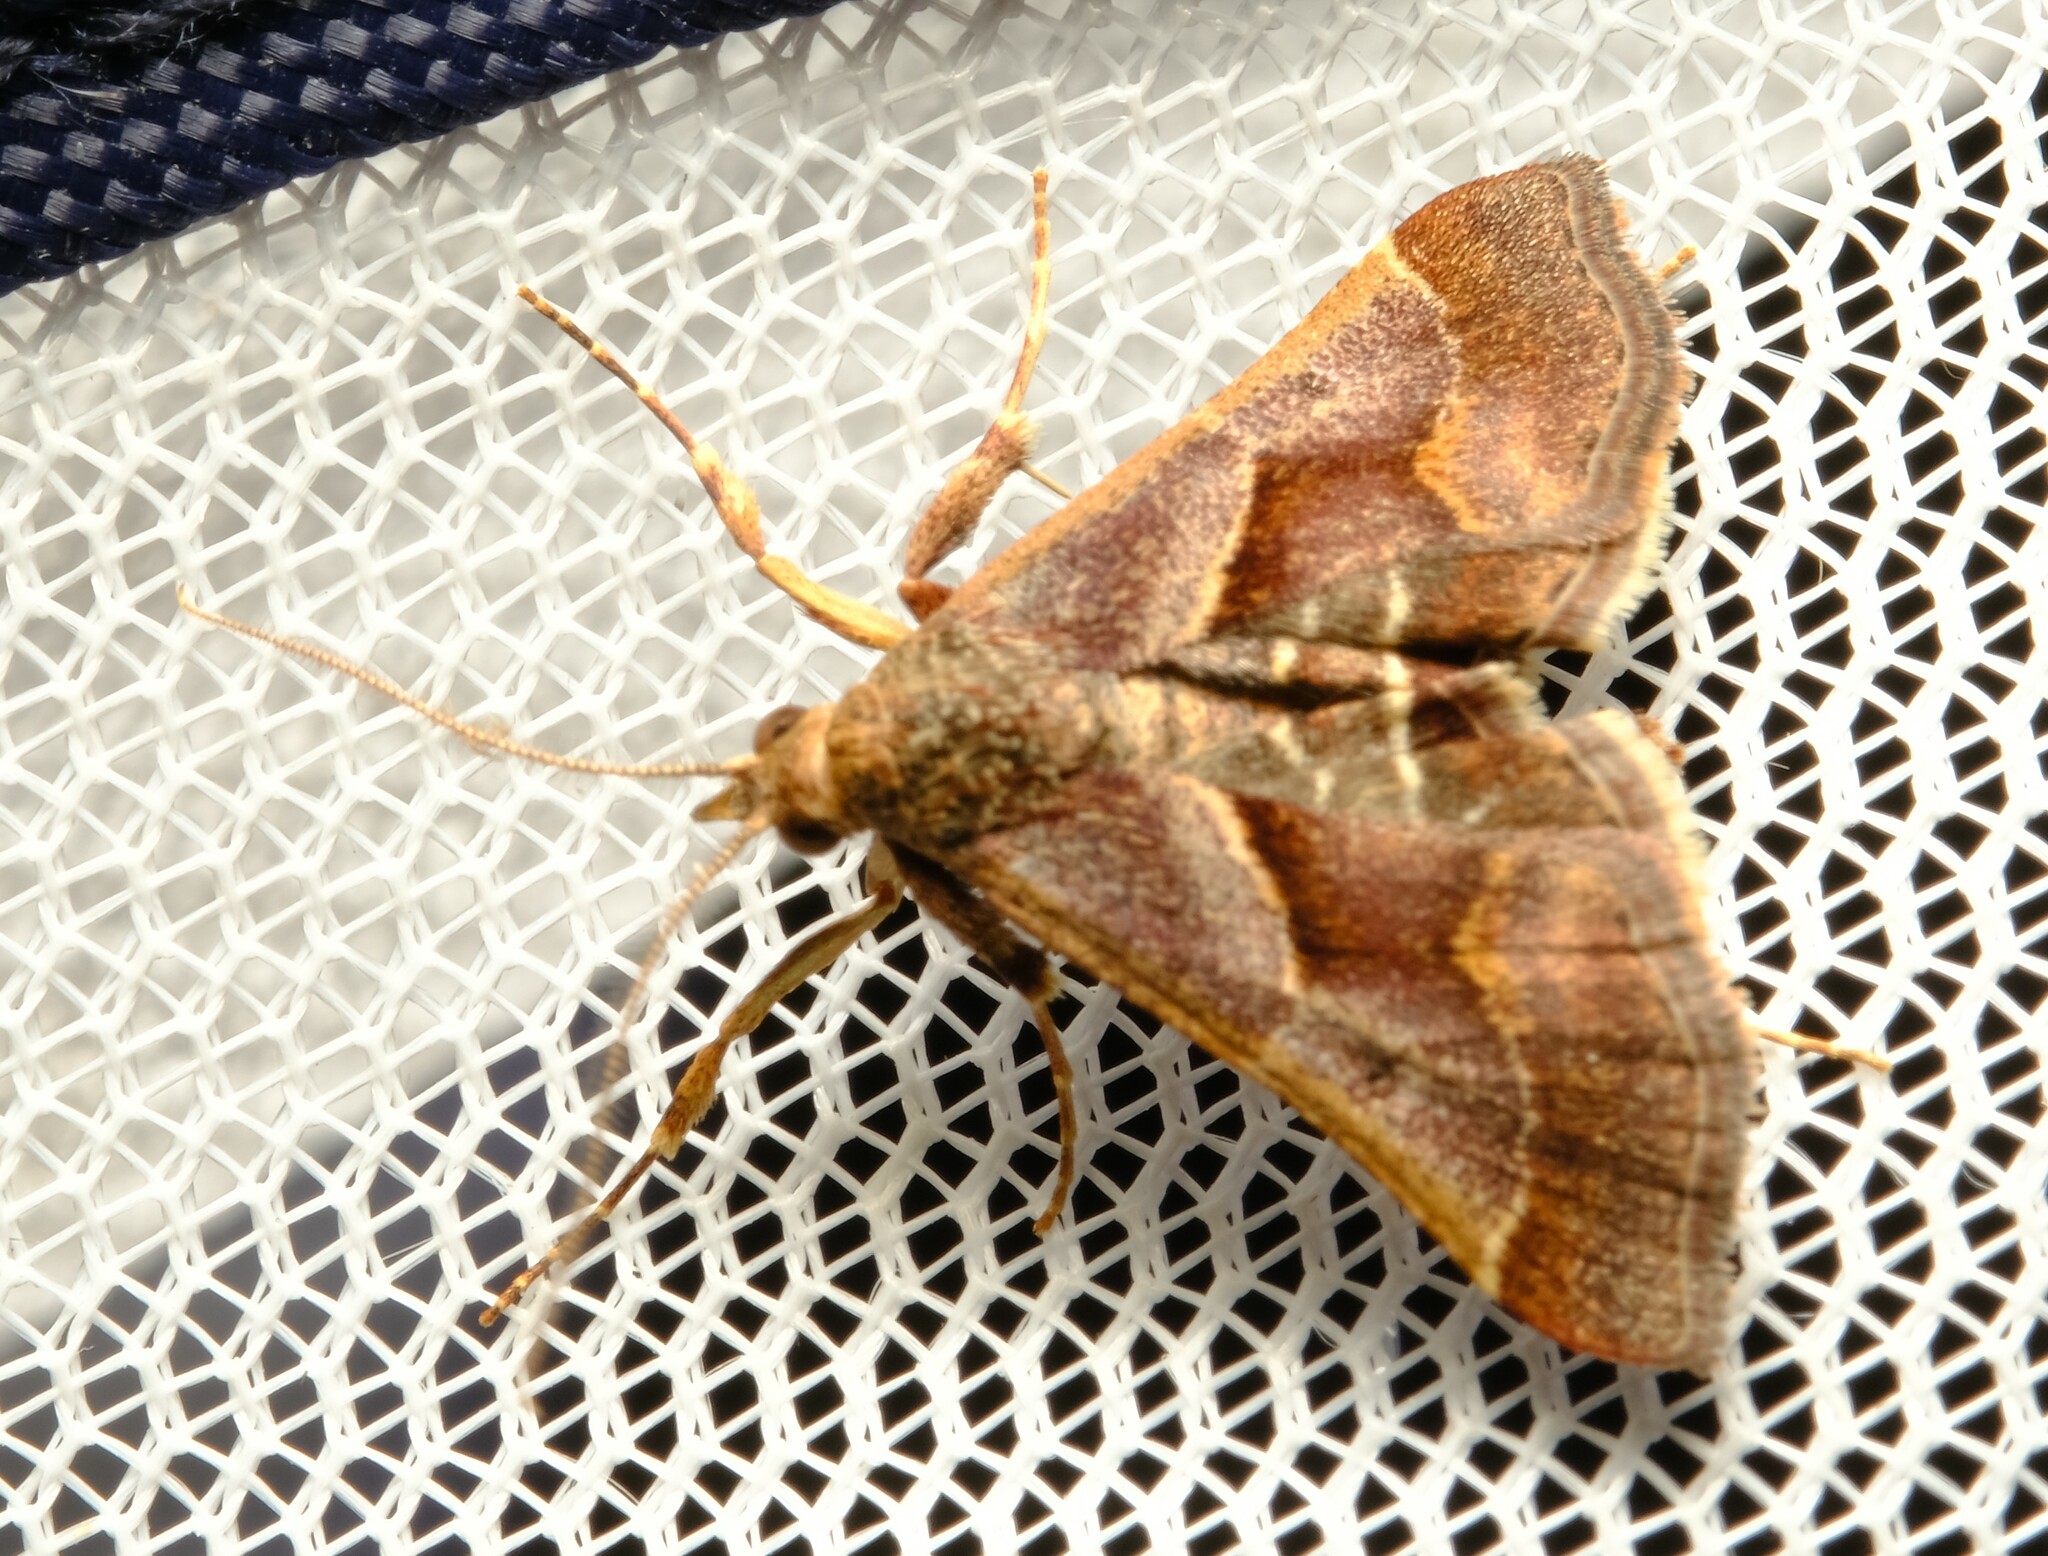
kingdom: Animalia
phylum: Arthropoda
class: Insecta
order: Lepidoptera
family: Pyralidae
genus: Gauna
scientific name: Gauna aegusalis
